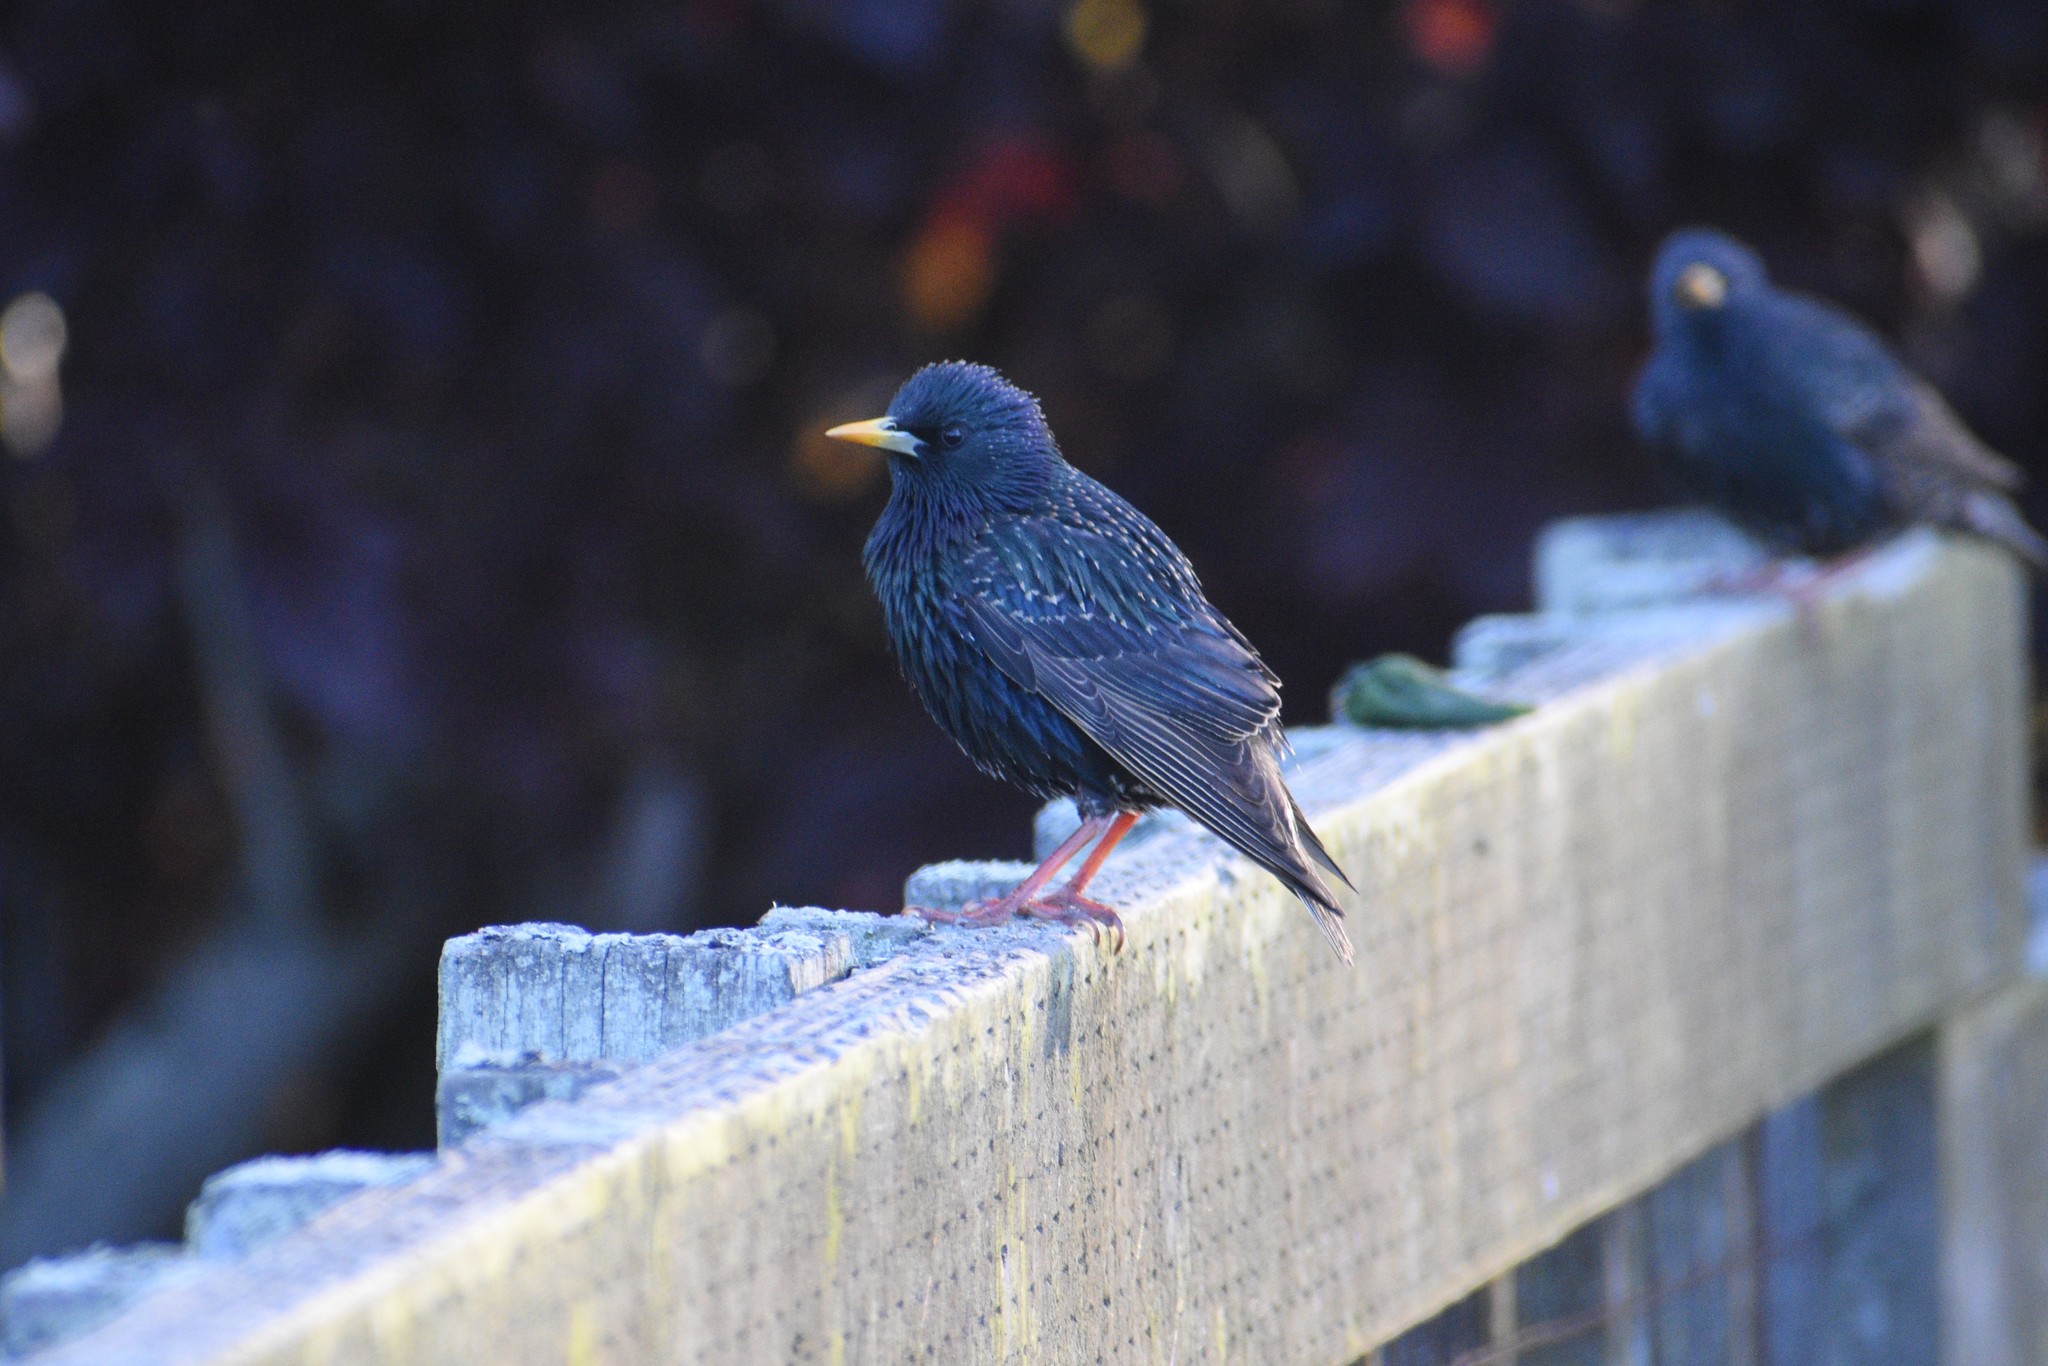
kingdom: Animalia
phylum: Chordata
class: Aves
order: Passeriformes
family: Sturnidae
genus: Sturnus
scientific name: Sturnus vulgaris
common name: Common starling
